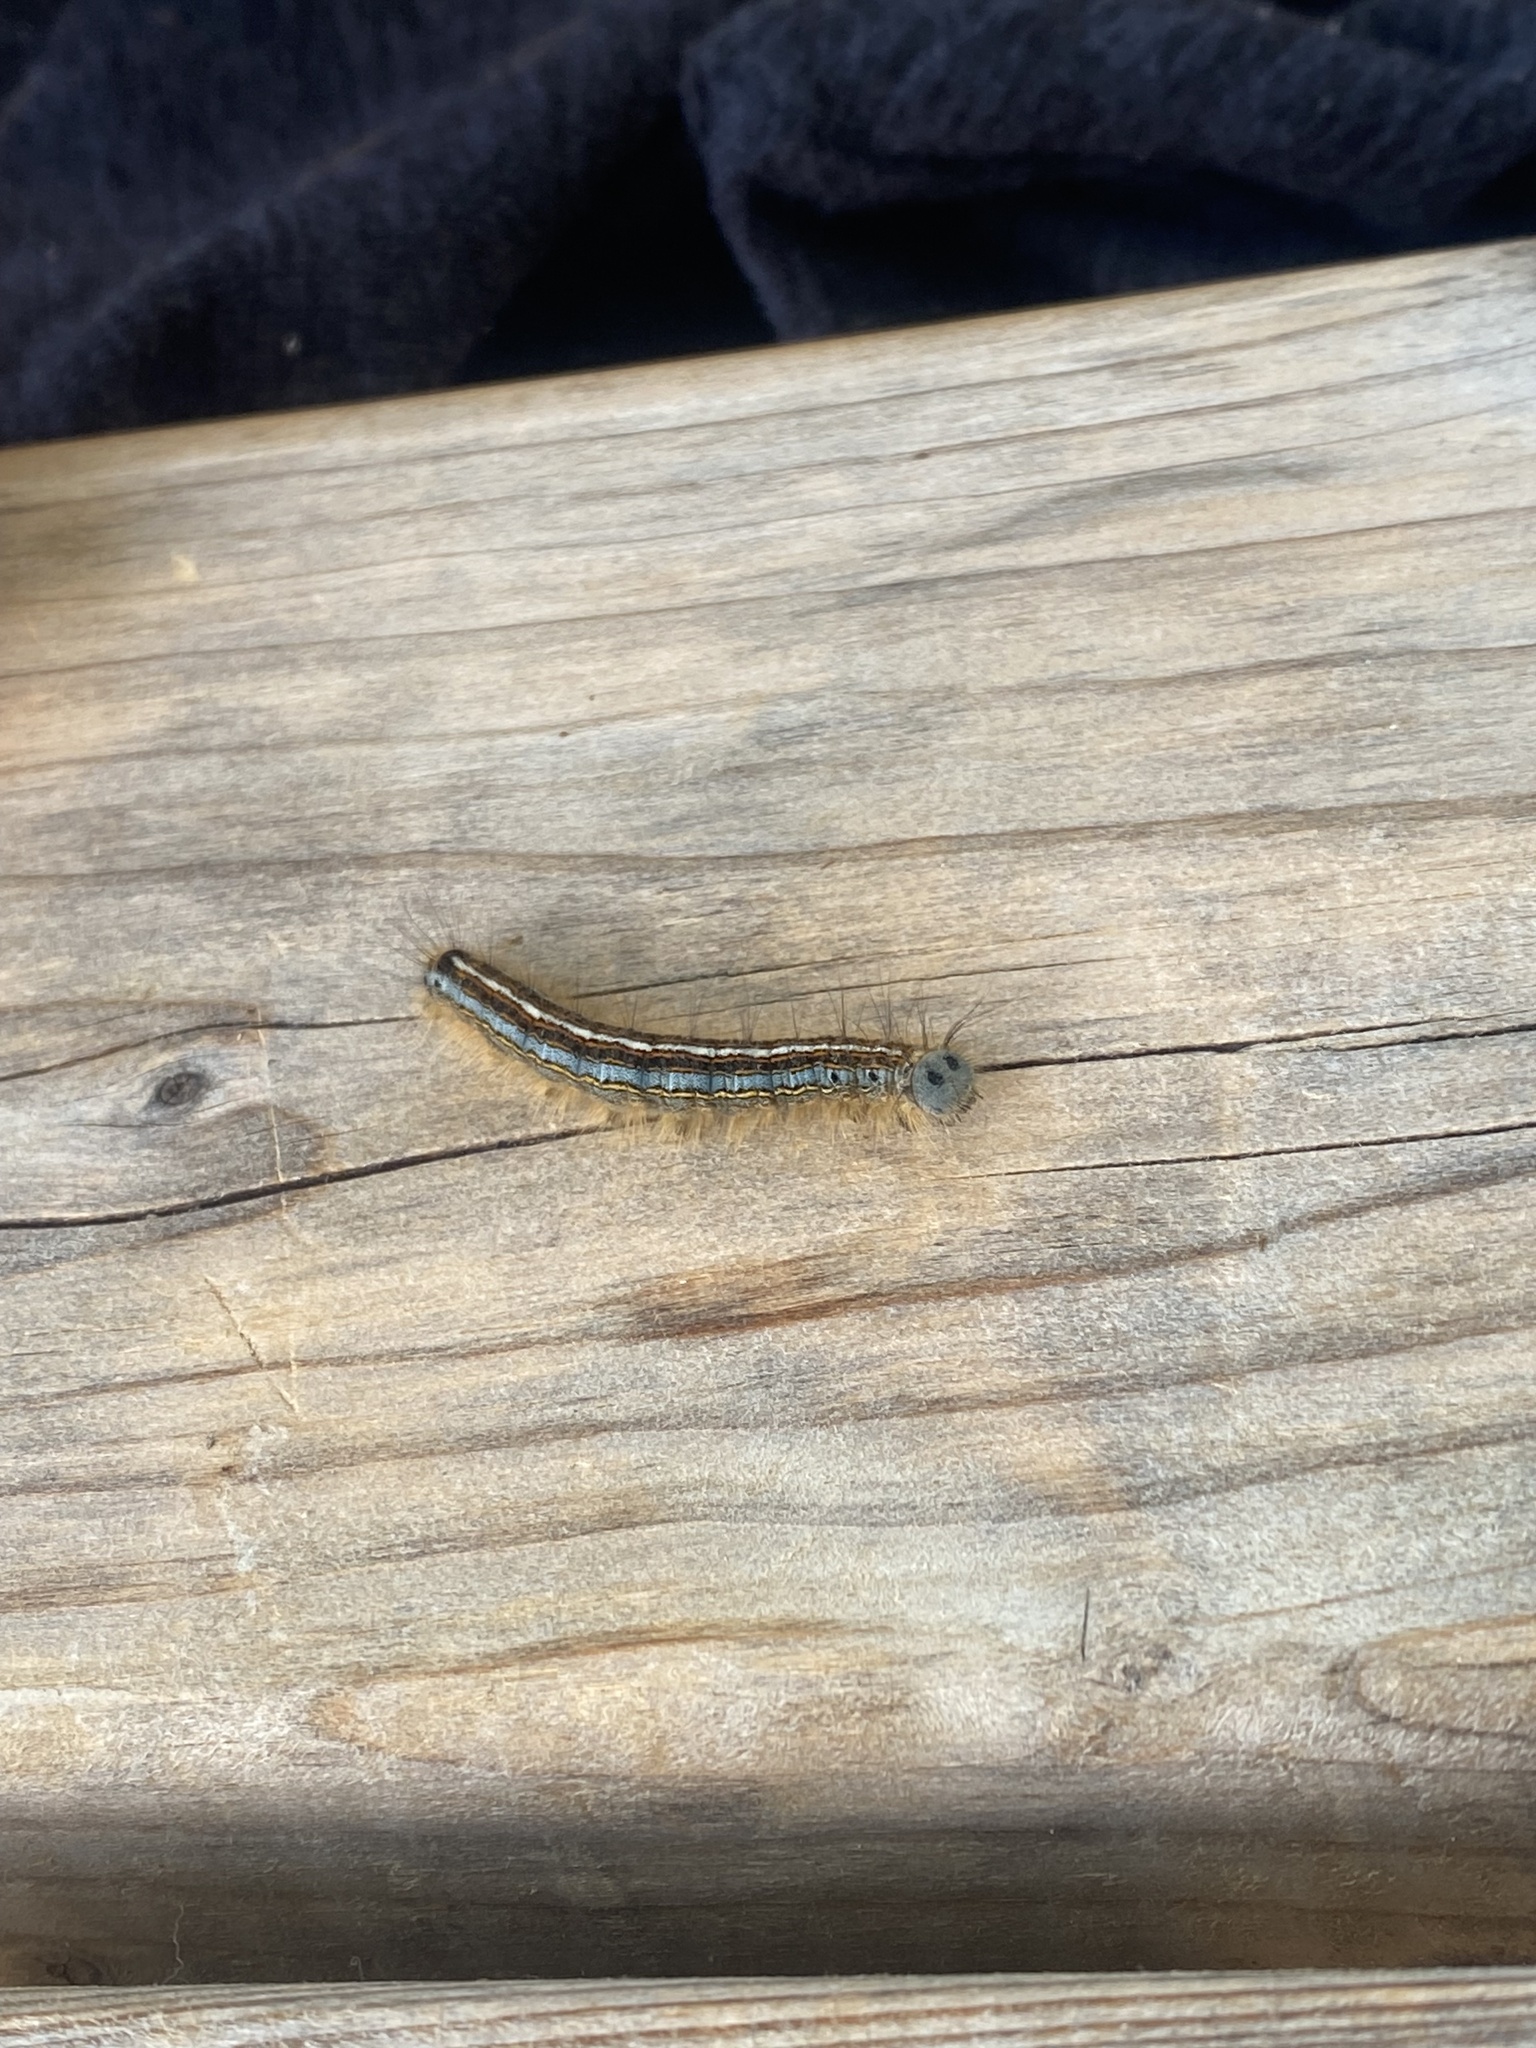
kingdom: Animalia
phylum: Arthropoda
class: Insecta
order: Lepidoptera
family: Lasiocampidae
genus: Malacosoma
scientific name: Malacosoma neustria
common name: The lackey
